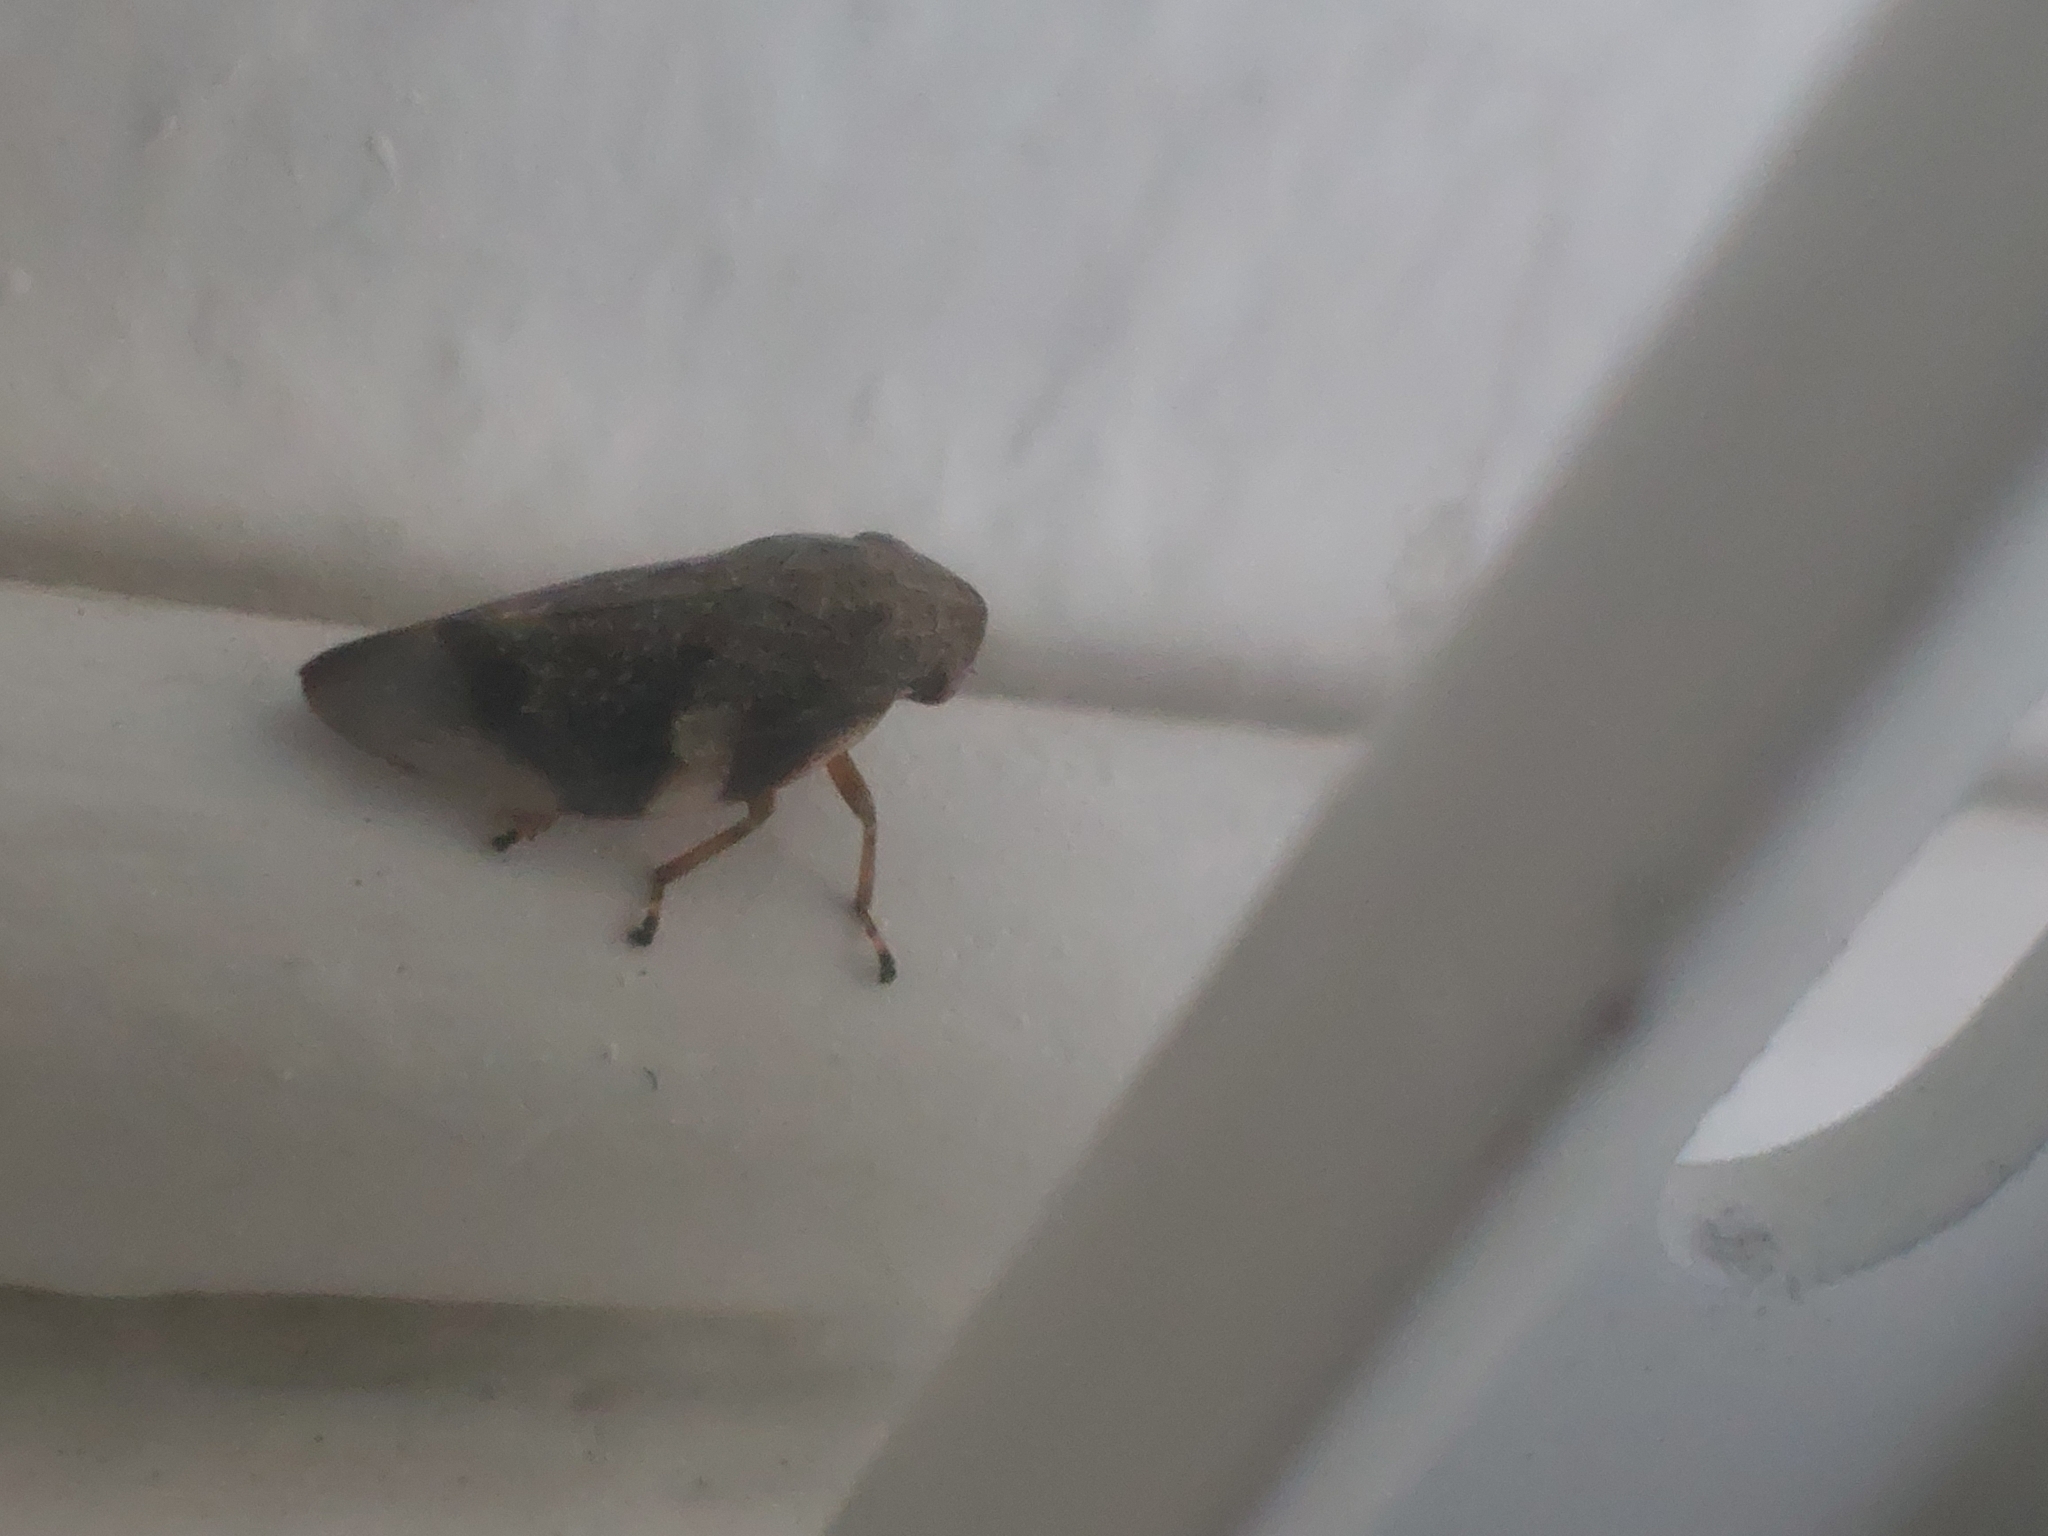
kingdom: Animalia
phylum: Arthropoda
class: Insecta
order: Hemiptera
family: Aphrophoridae
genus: Aphrophora
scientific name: Aphrophora alni
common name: European alder spittlebug
